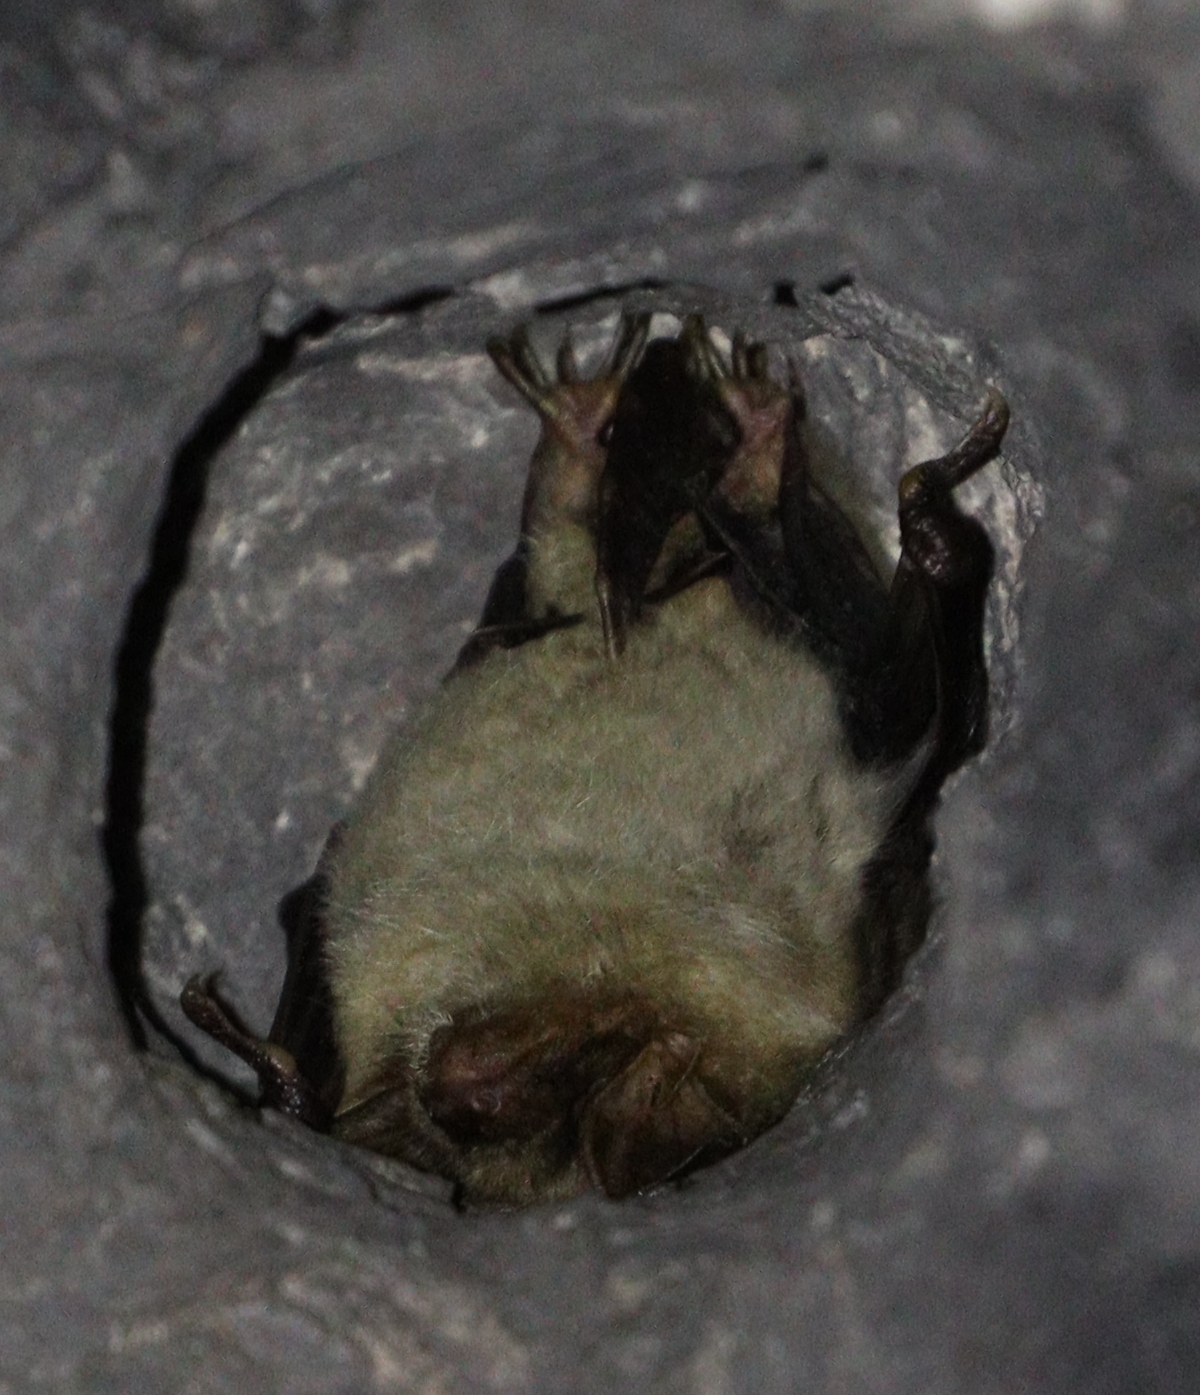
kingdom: Animalia
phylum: Chordata
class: Mammalia
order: Chiroptera
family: Vespertilionidae
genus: Myotis
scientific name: Myotis myotis
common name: Greater mouse-eared bat
